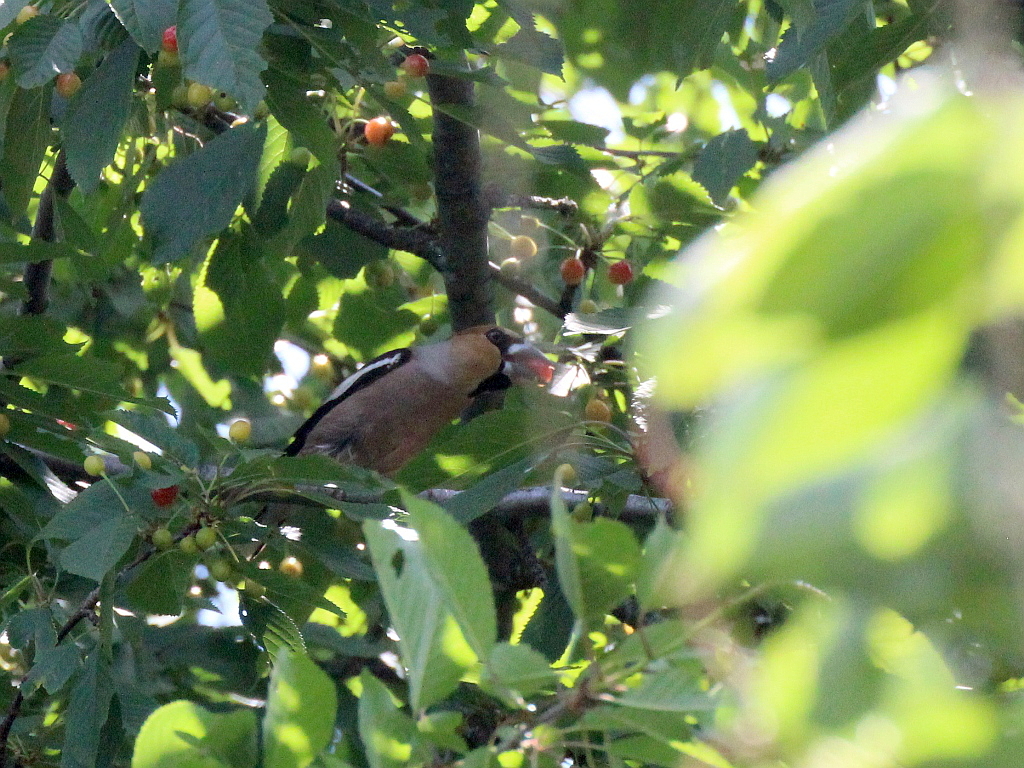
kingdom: Animalia
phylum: Chordata
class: Aves
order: Passeriformes
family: Fringillidae
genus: Coccothraustes
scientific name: Coccothraustes coccothraustes
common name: Hawfinch
